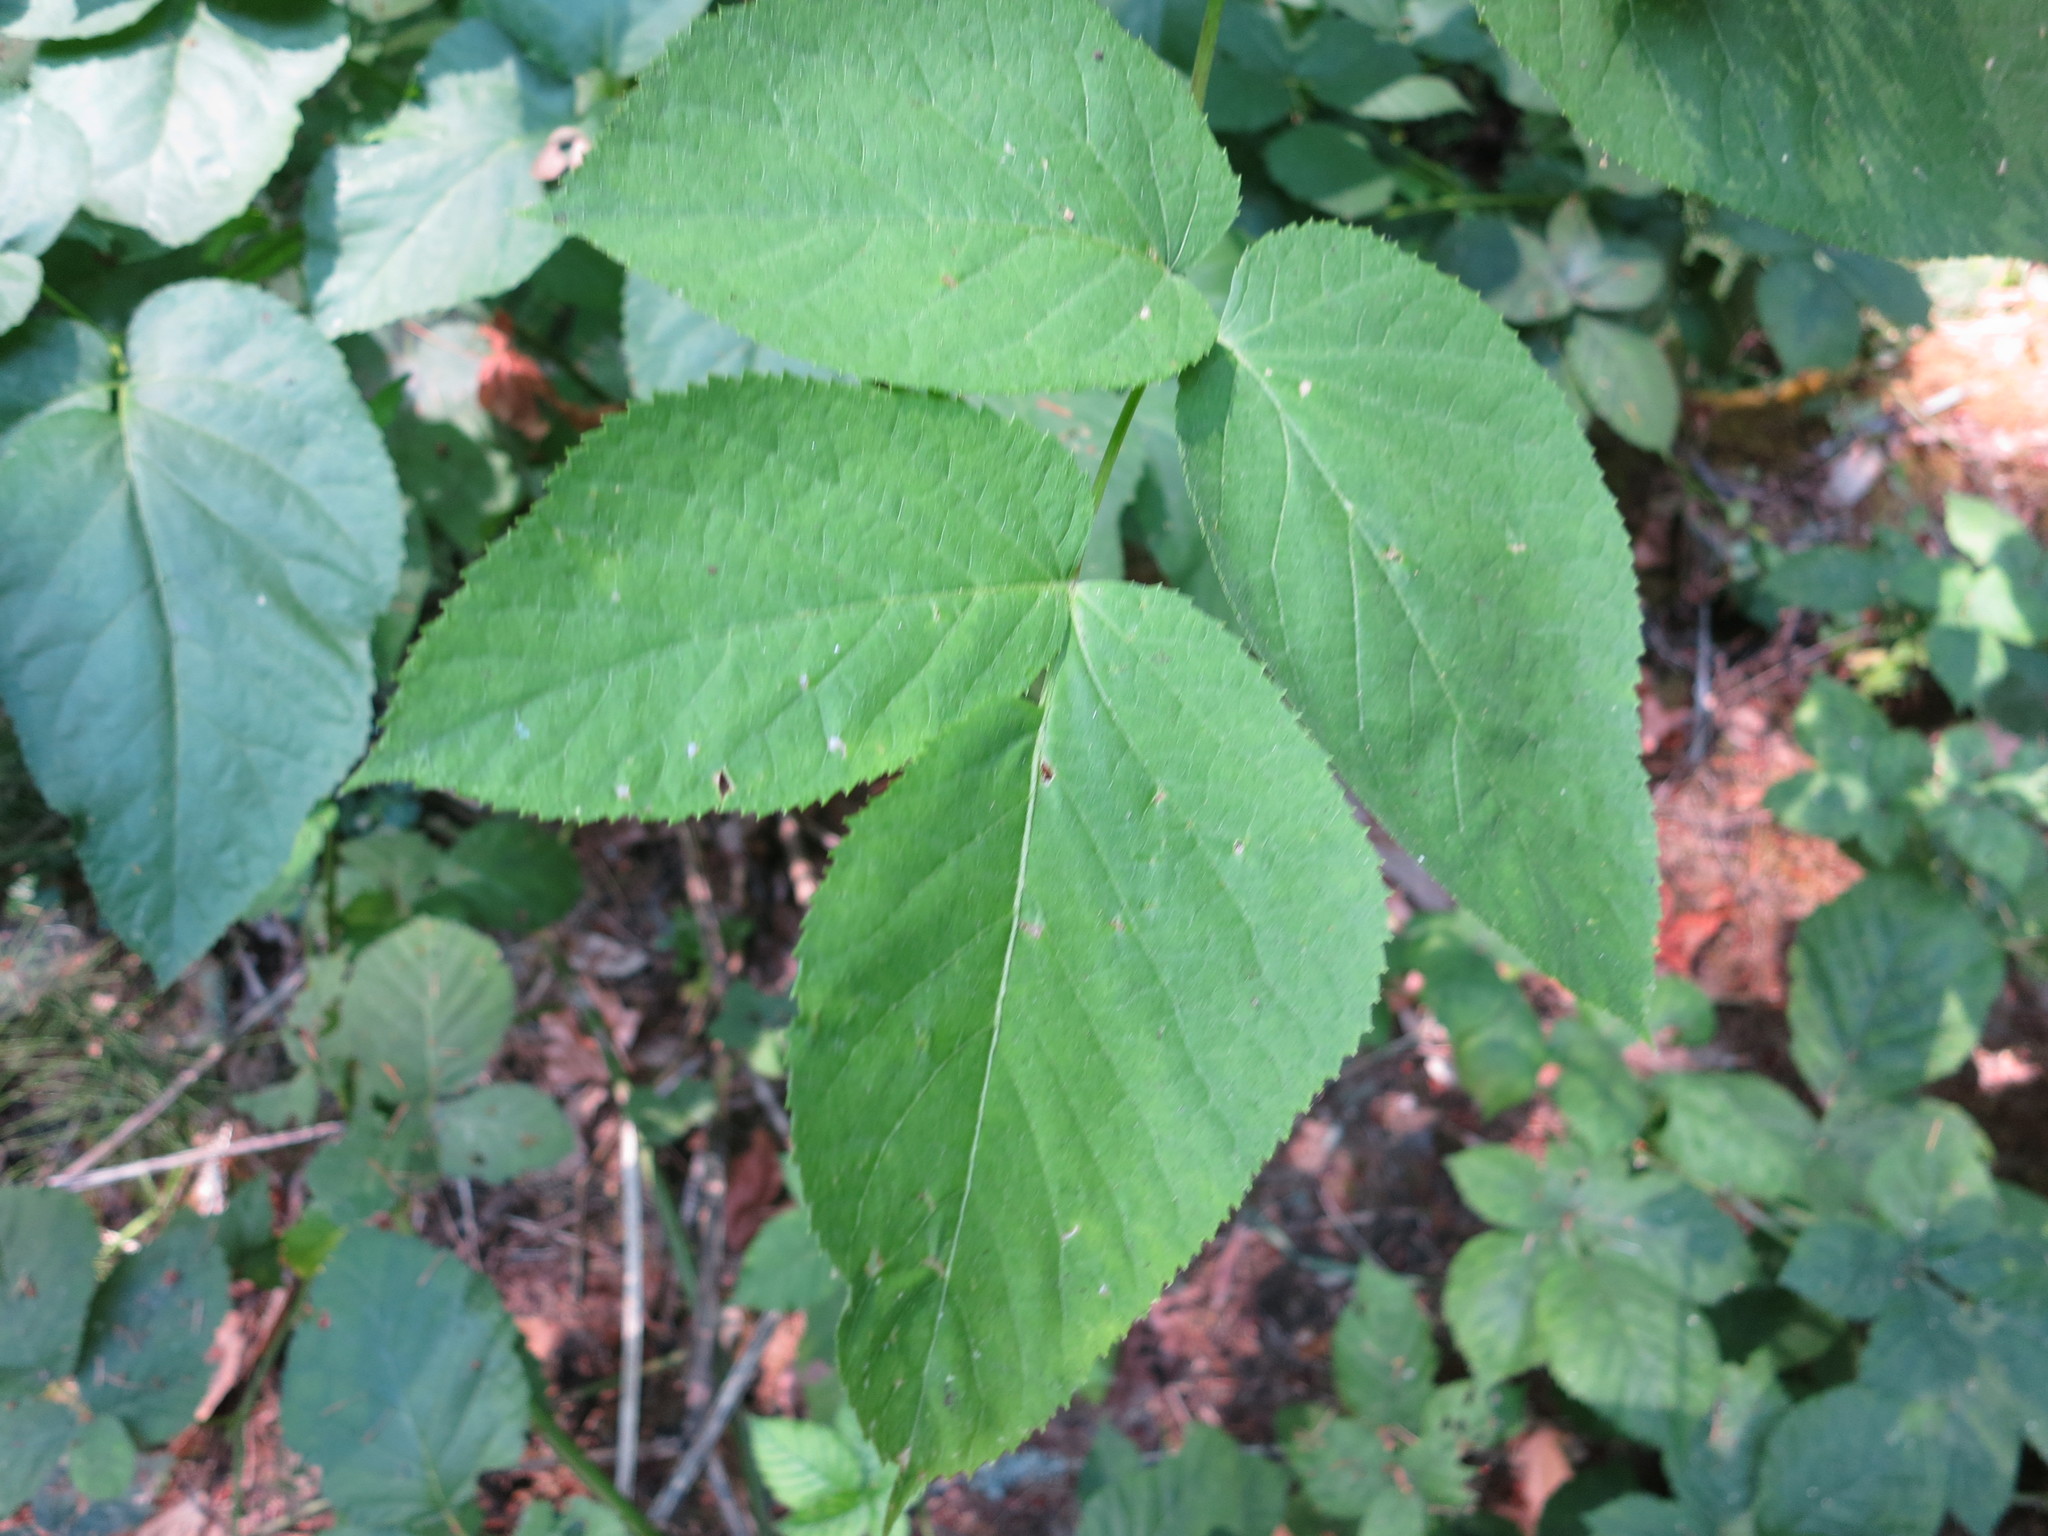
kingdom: Plantae
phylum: Tracheophyta
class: Magnoliopsida
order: Apiales
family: Araliaceae
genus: Aralia
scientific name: Aralia californica
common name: California-ginseng
